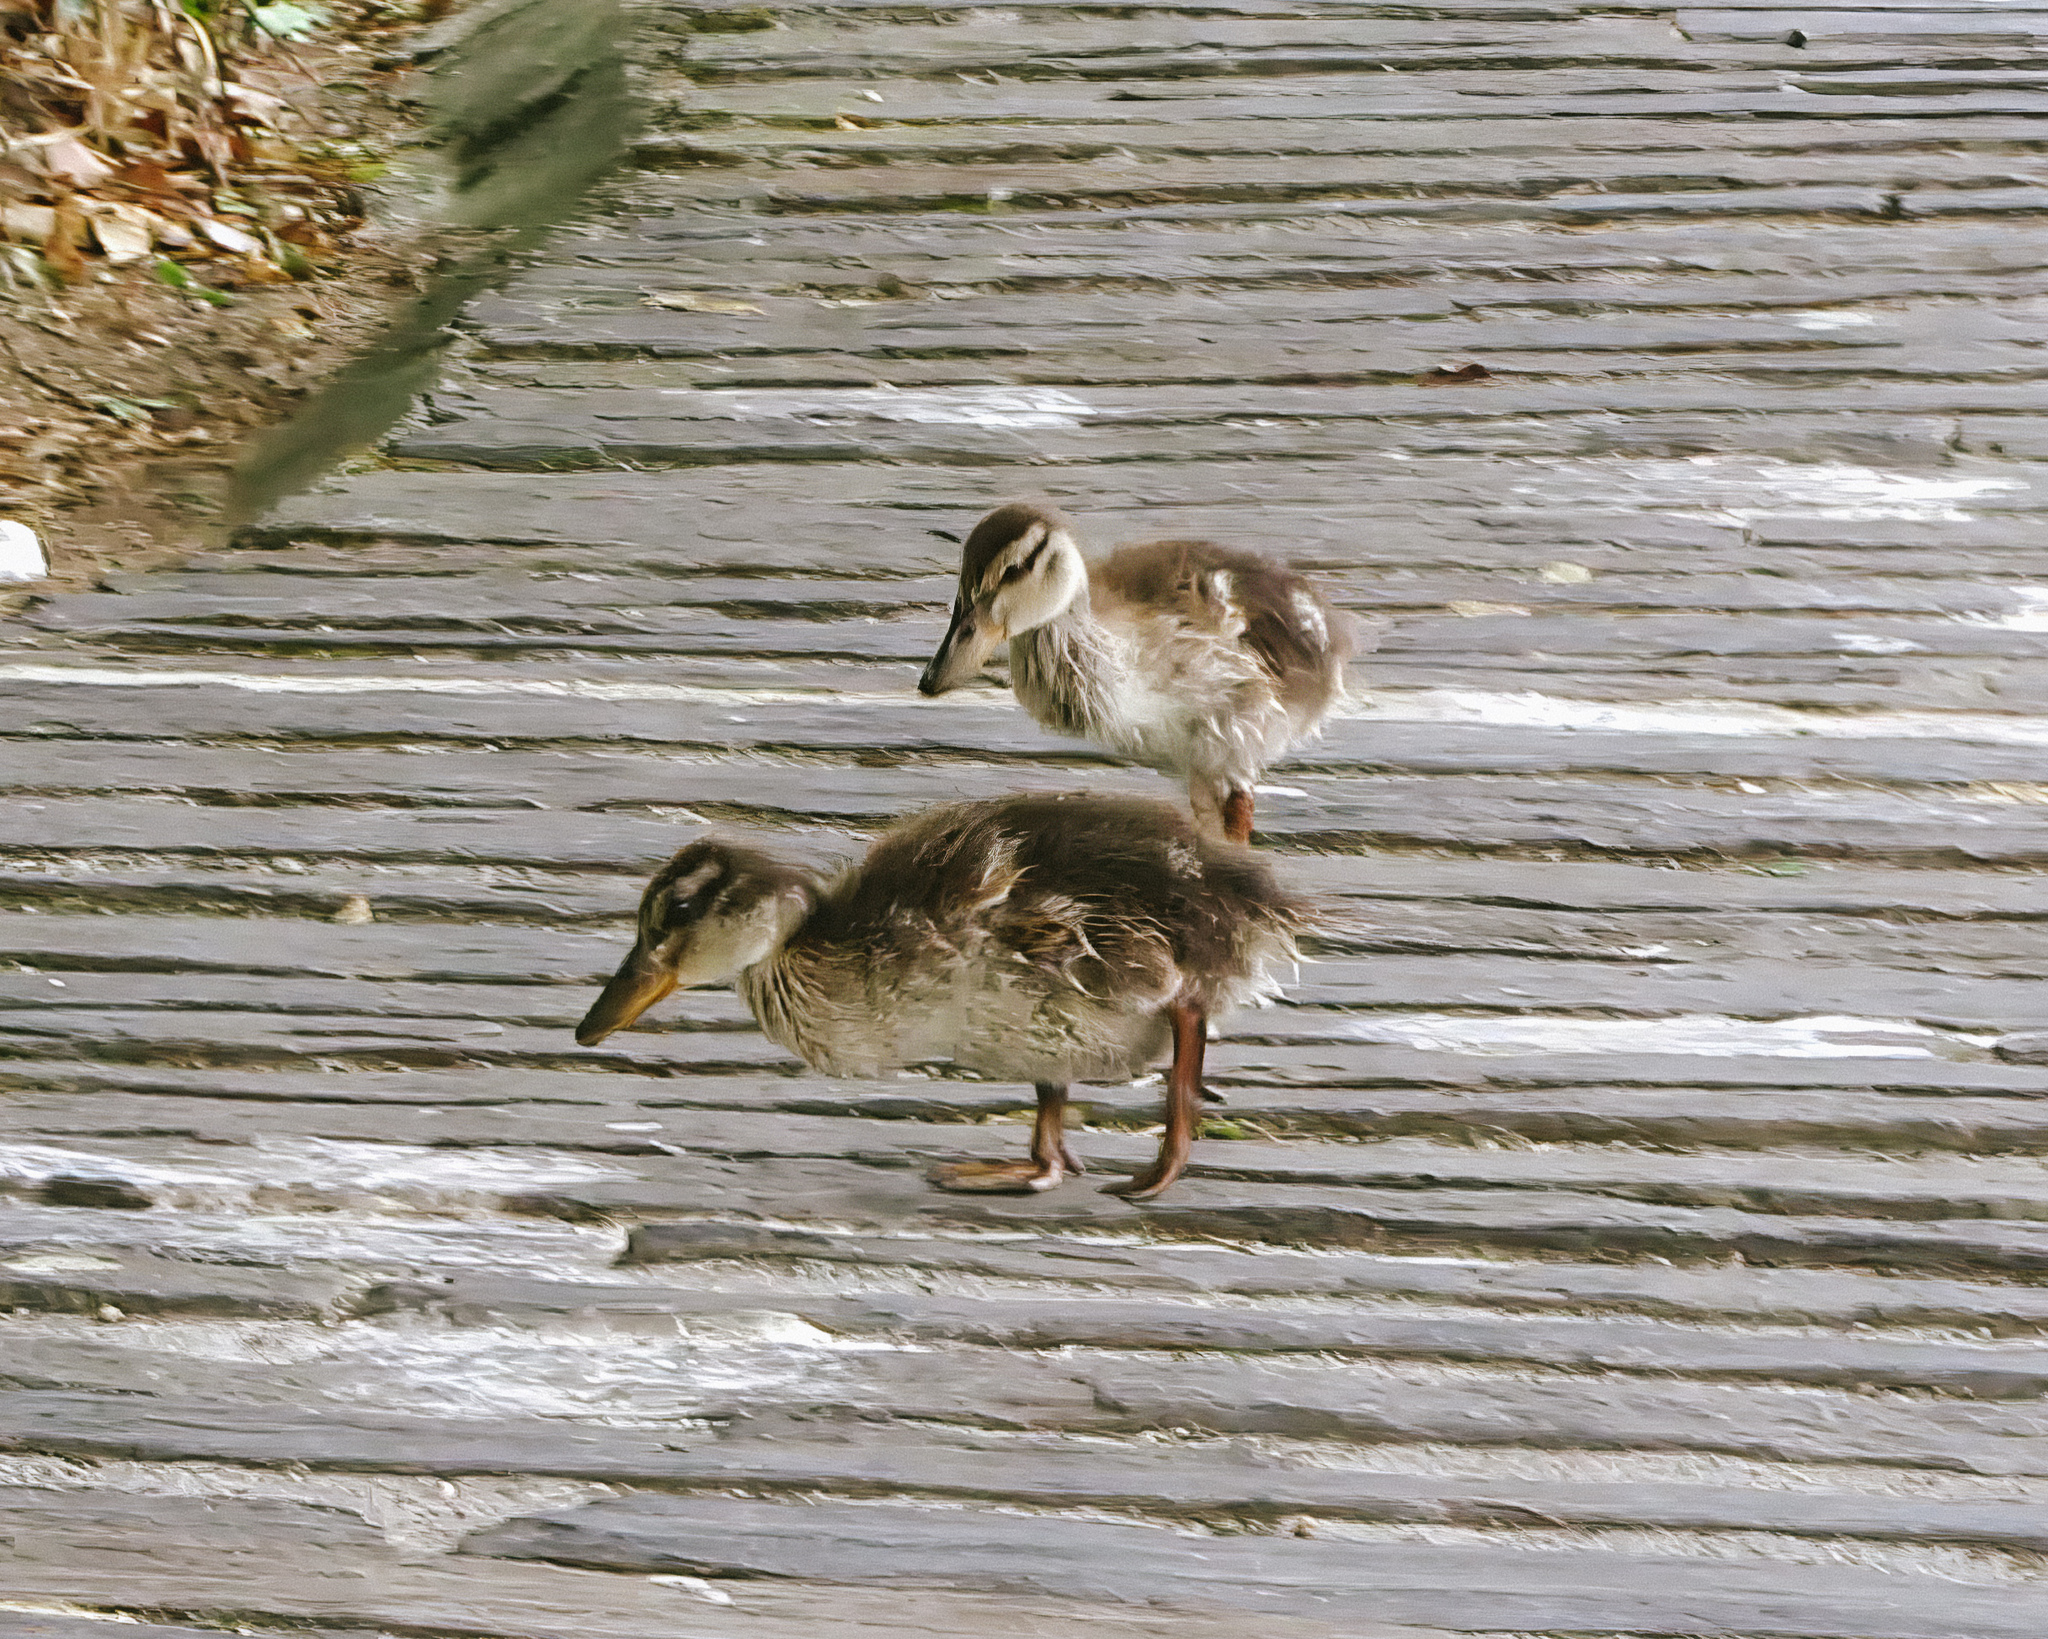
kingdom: Animalia
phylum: Chordata
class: Aves
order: Anseriformes
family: Anatidae
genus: Anas
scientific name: Anas platyrhynchos
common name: Mallard
